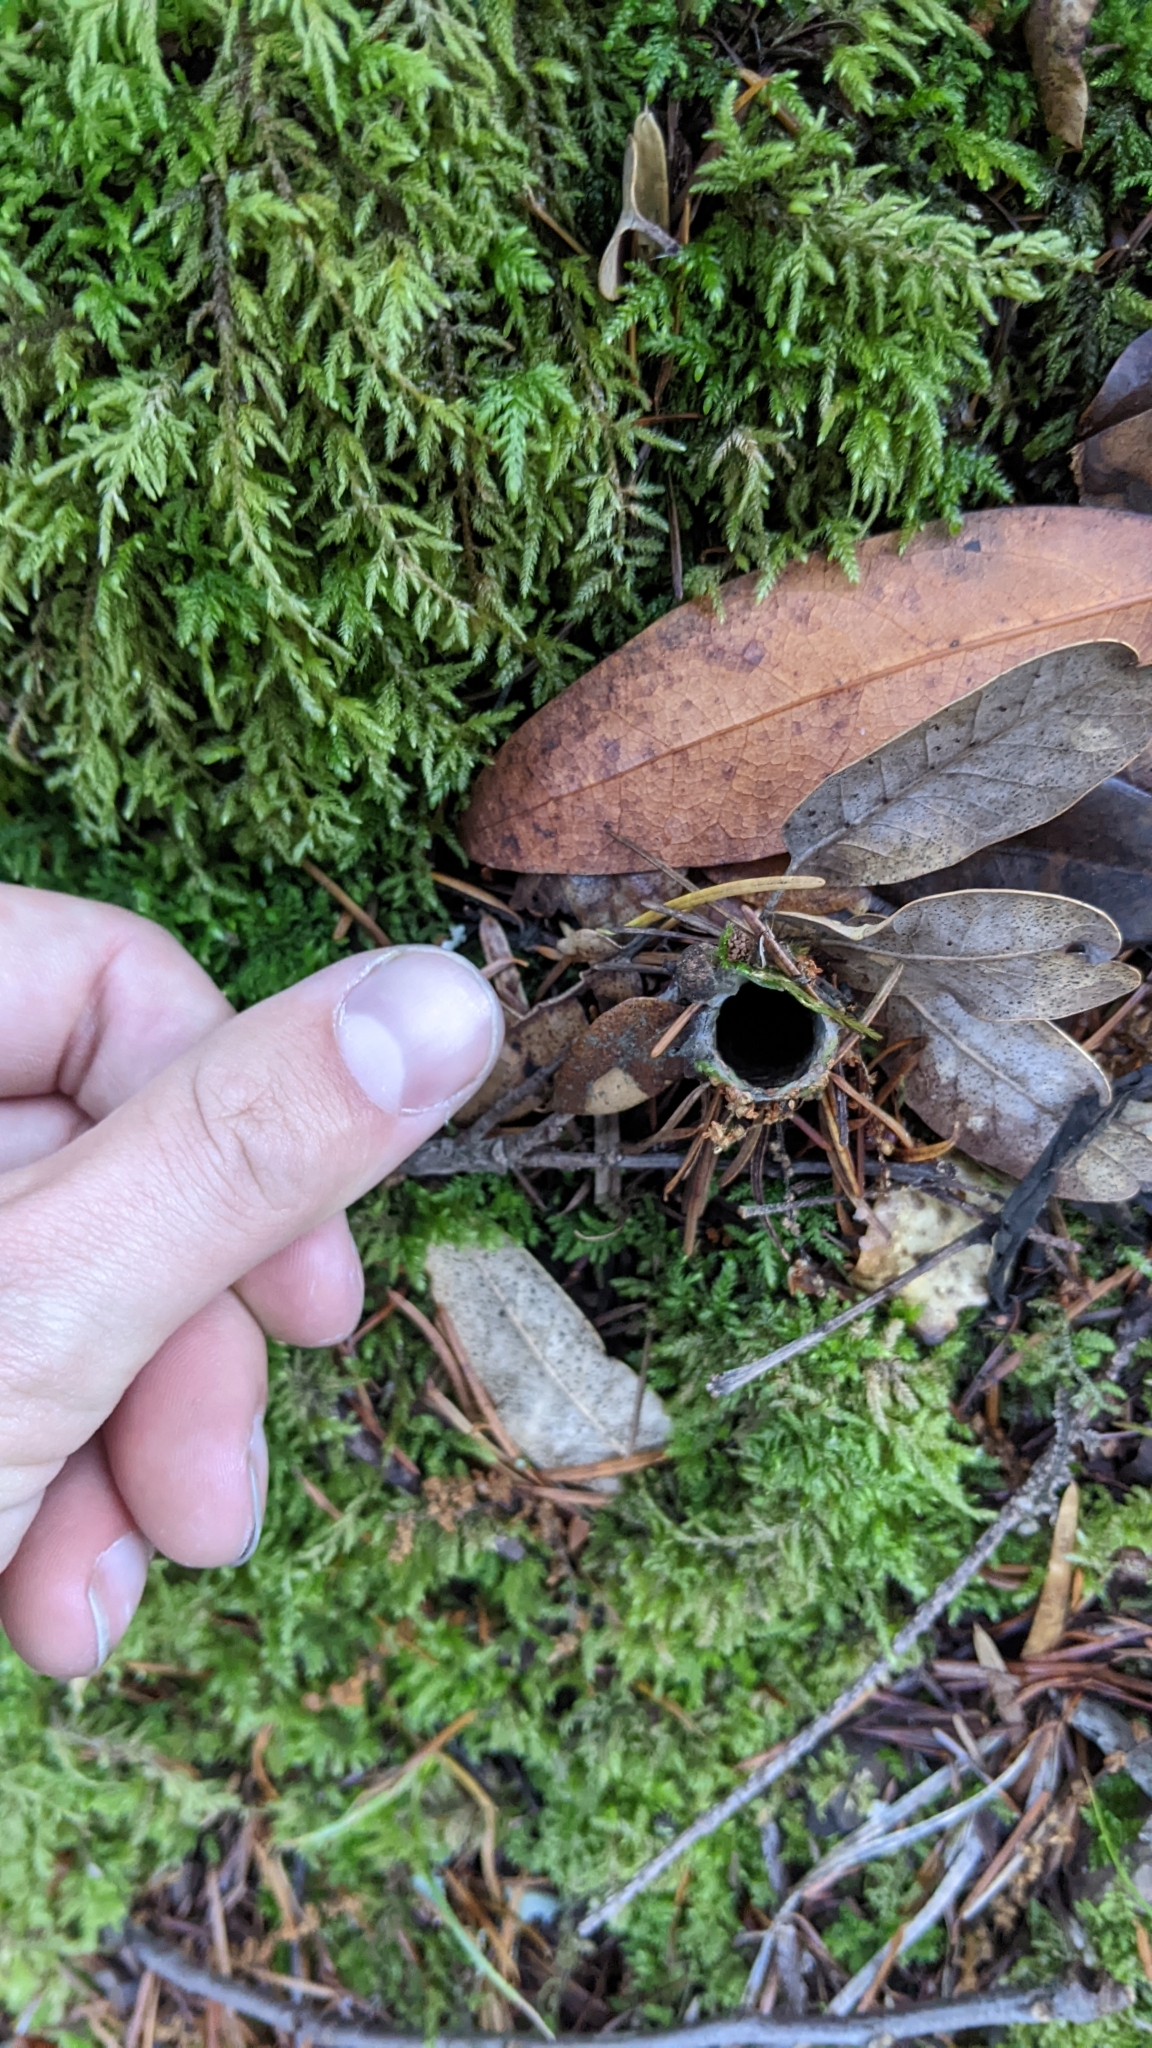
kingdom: Animalia
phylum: Arthropoda
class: Arachnida
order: Araneae
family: Antrodiaetidae
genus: Atypoides
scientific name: Atypoides riversi
